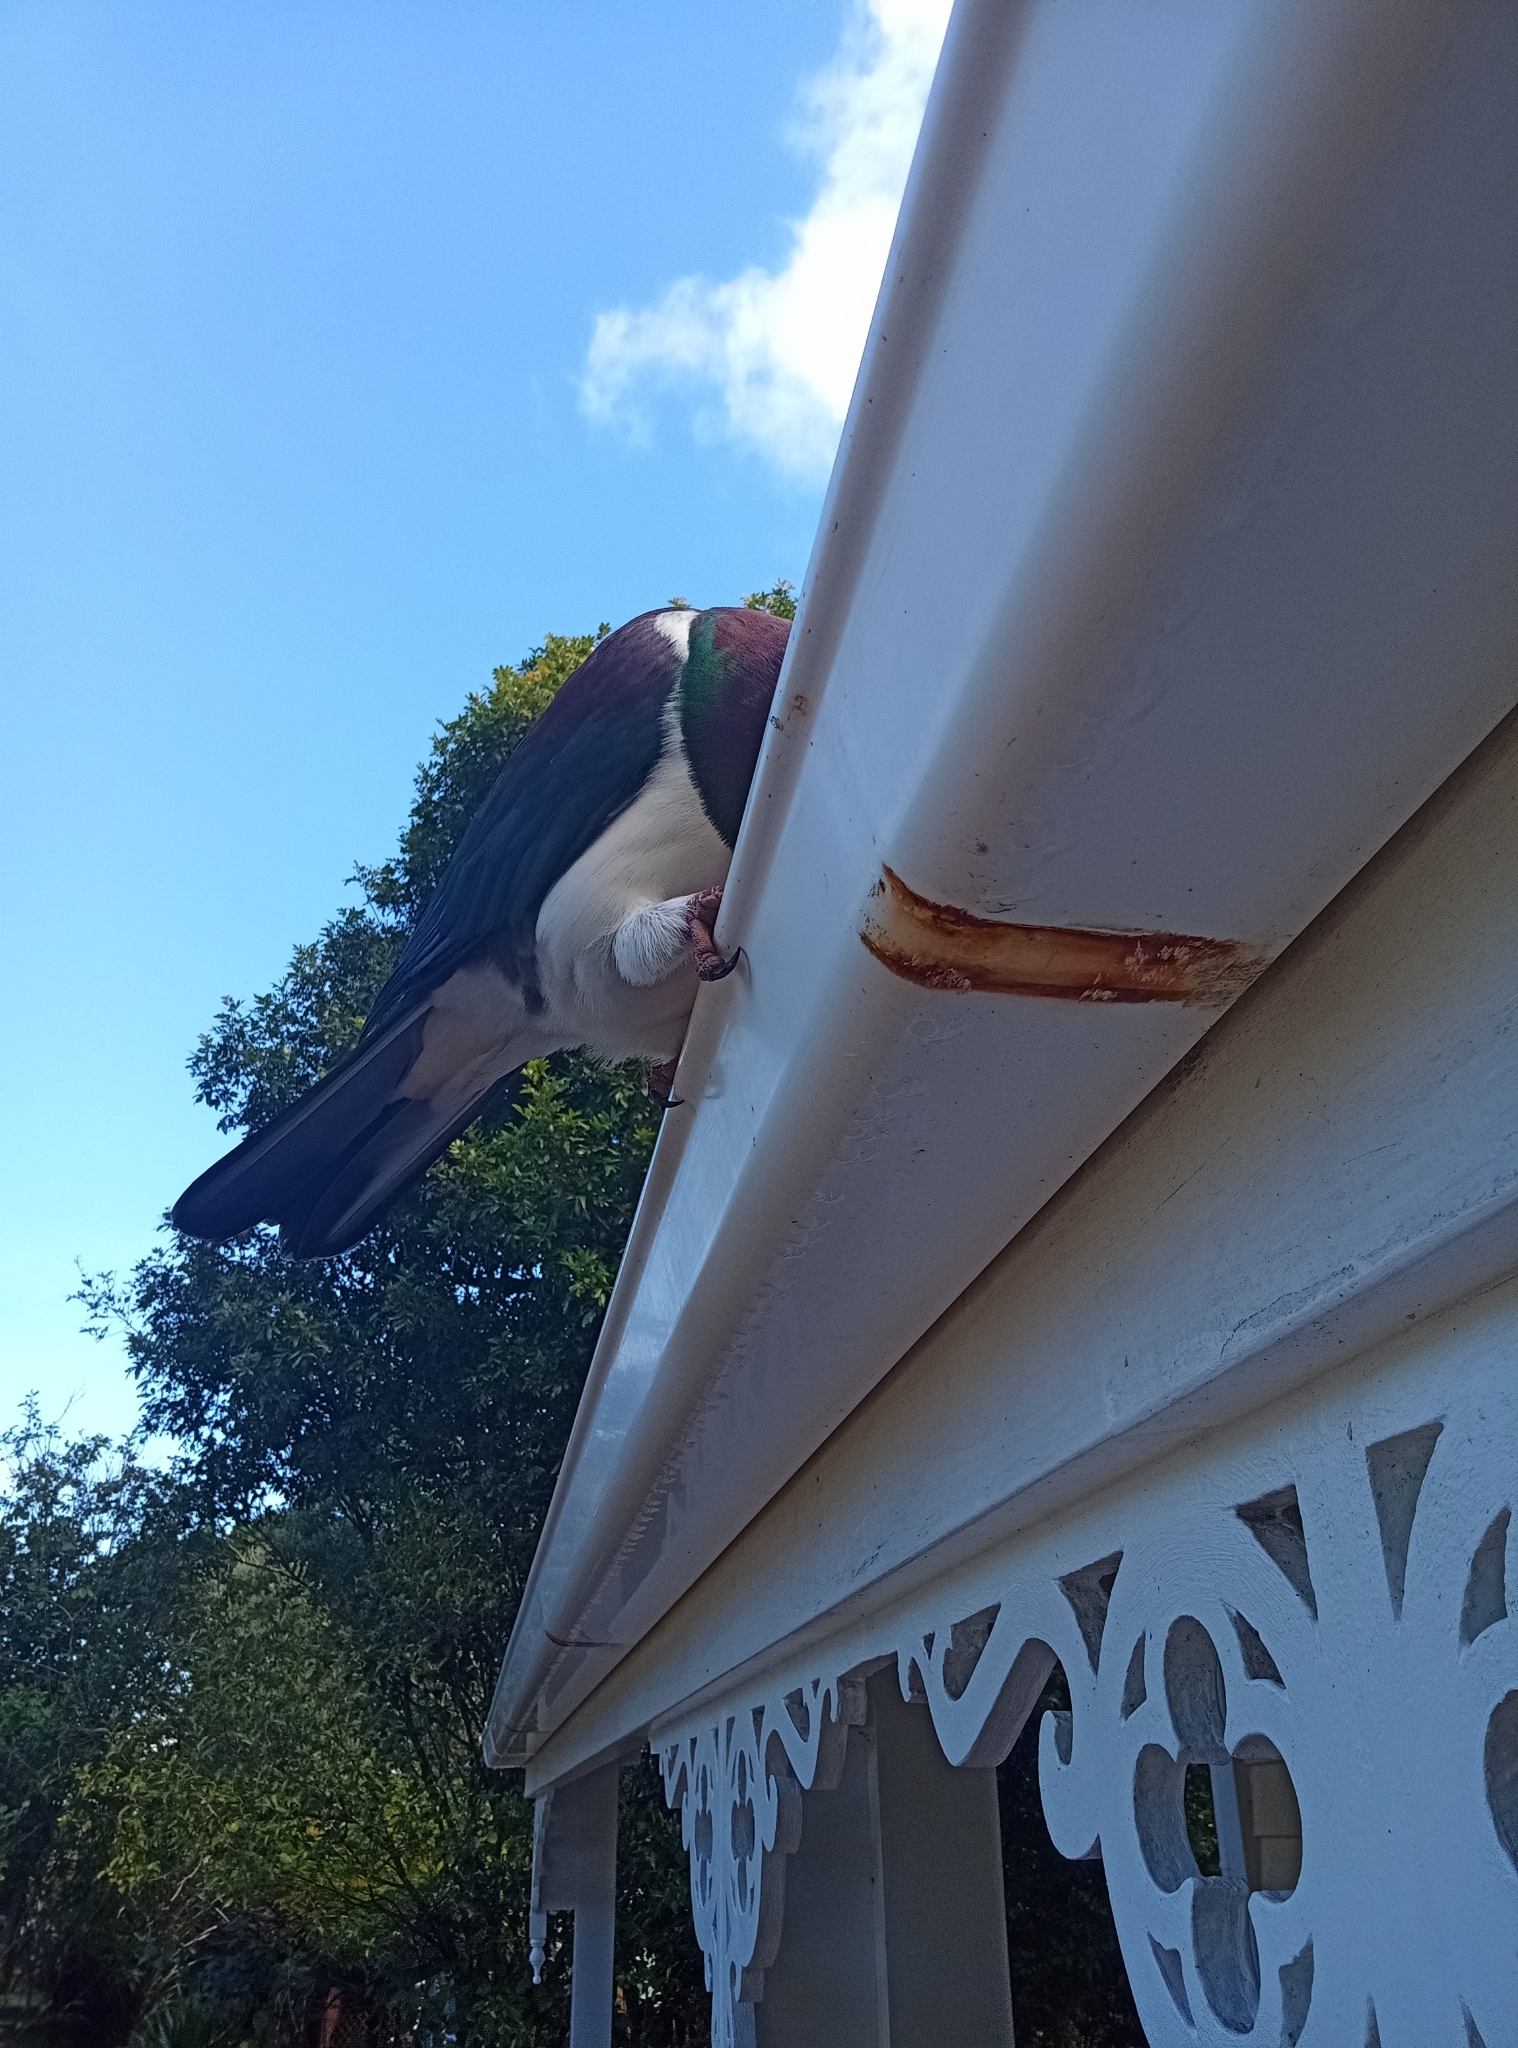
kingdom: Animalia
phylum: Chordata
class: Aves
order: Columbiformes
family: Columbidae
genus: Hemiphaga
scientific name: Hemiphaga novaeseelandiae
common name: New zealand pigeon
